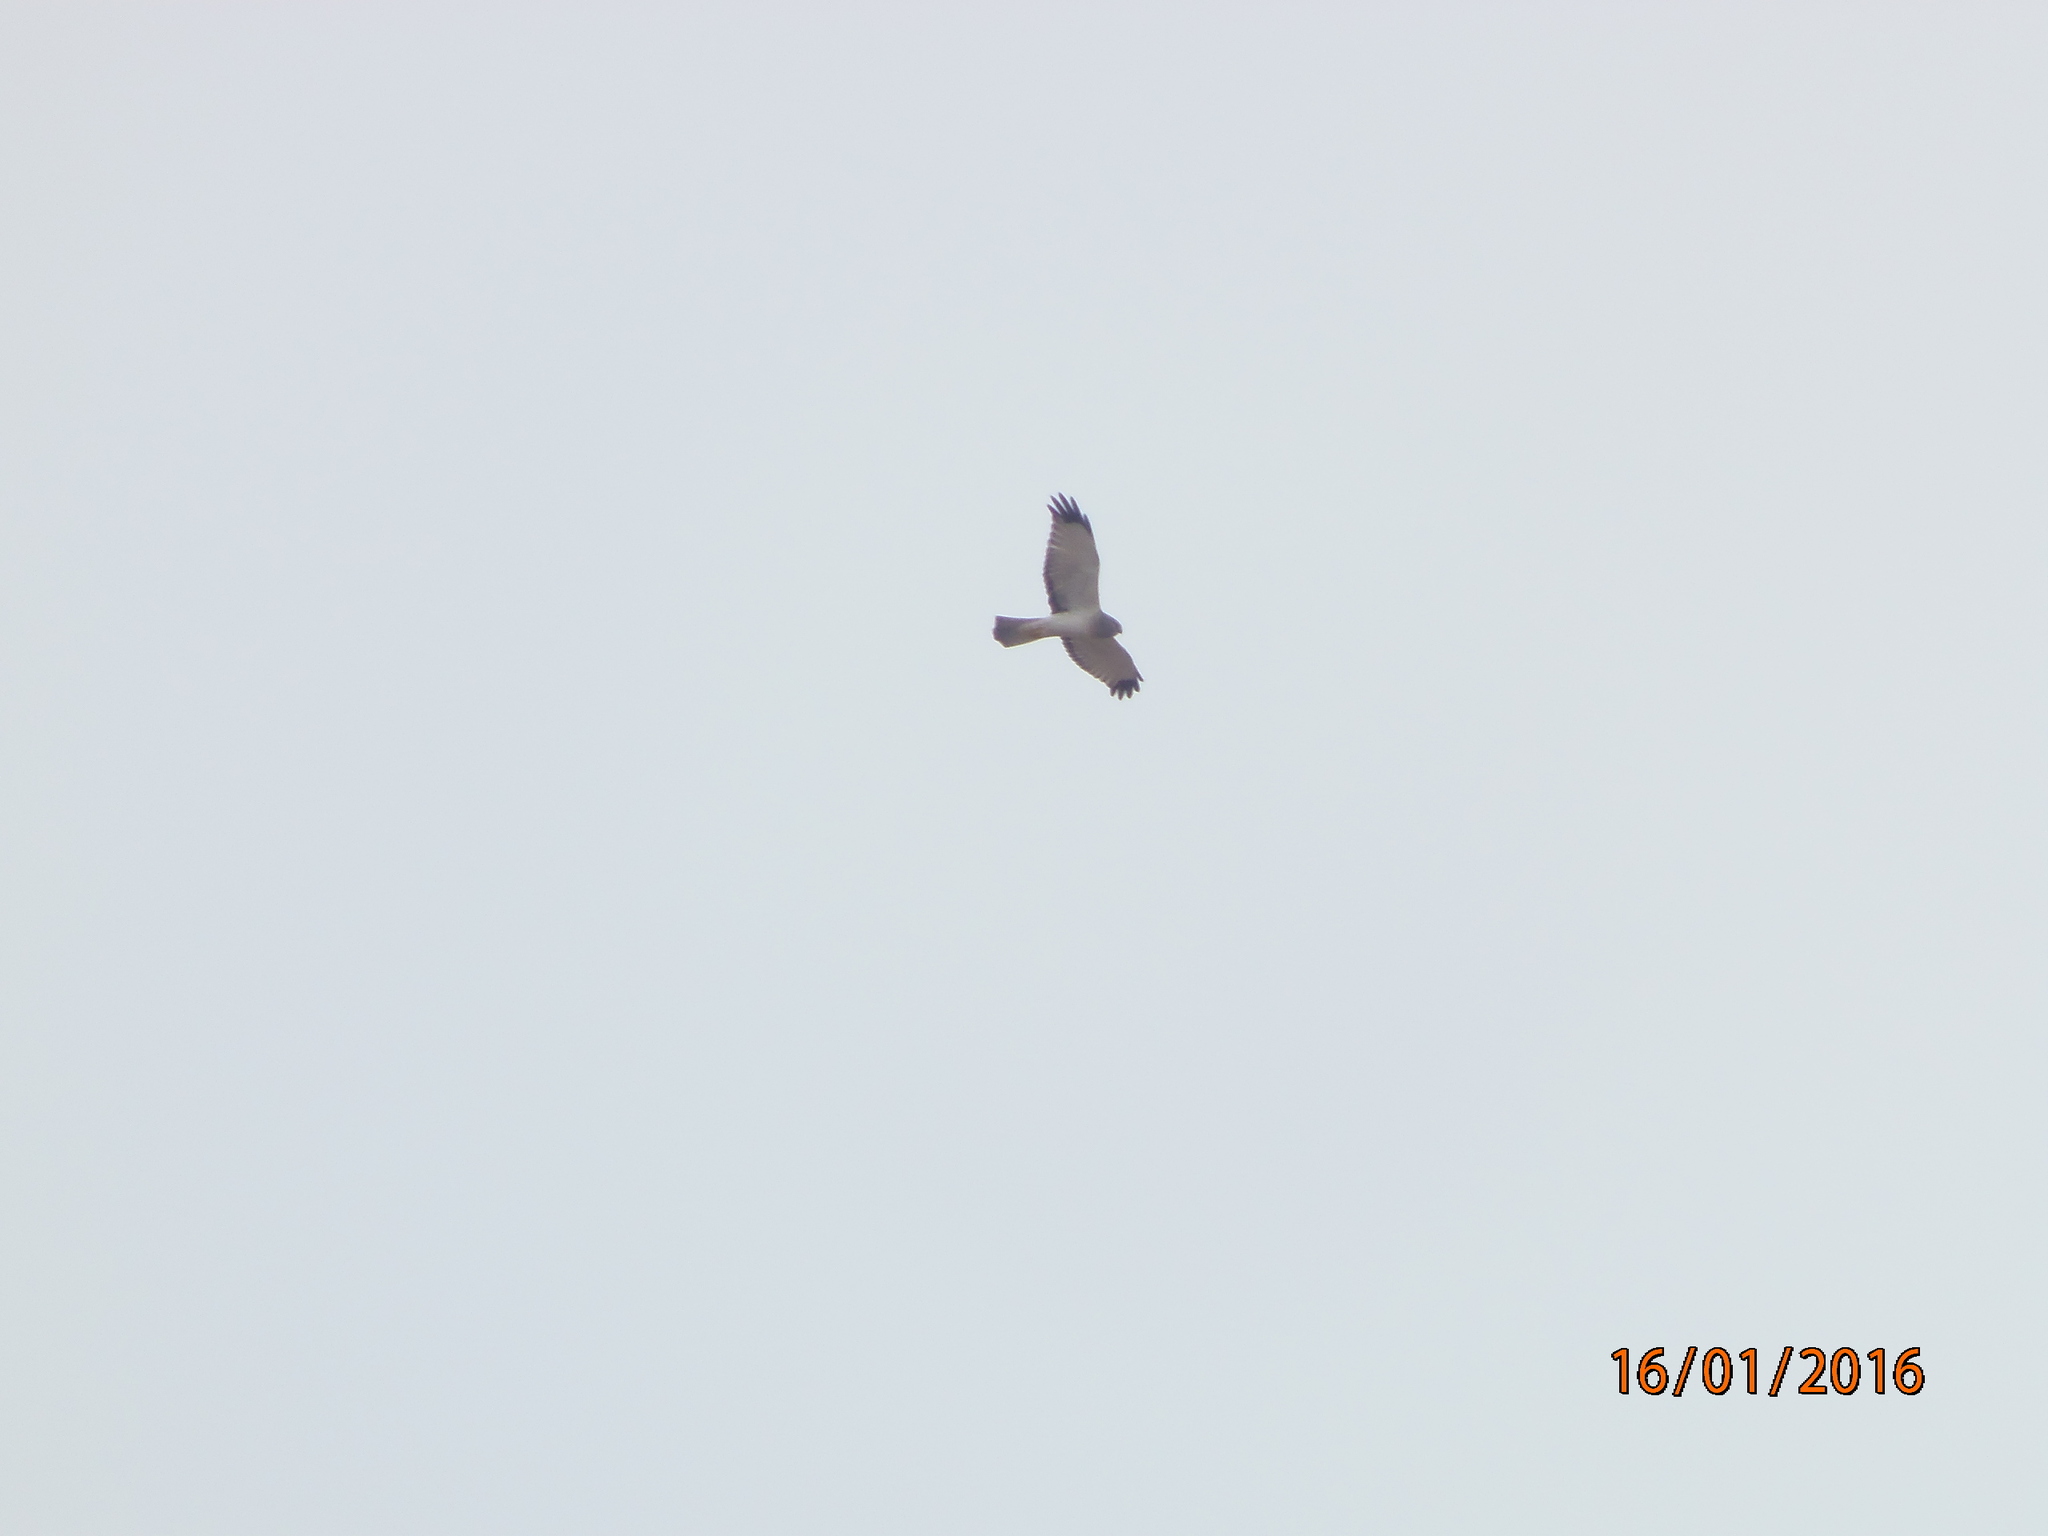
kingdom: Animalia
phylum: Chordata
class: Aves
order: Accipitriformes
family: Accipitridae
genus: Circus
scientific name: Circus cyaneus
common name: Hen harrier
